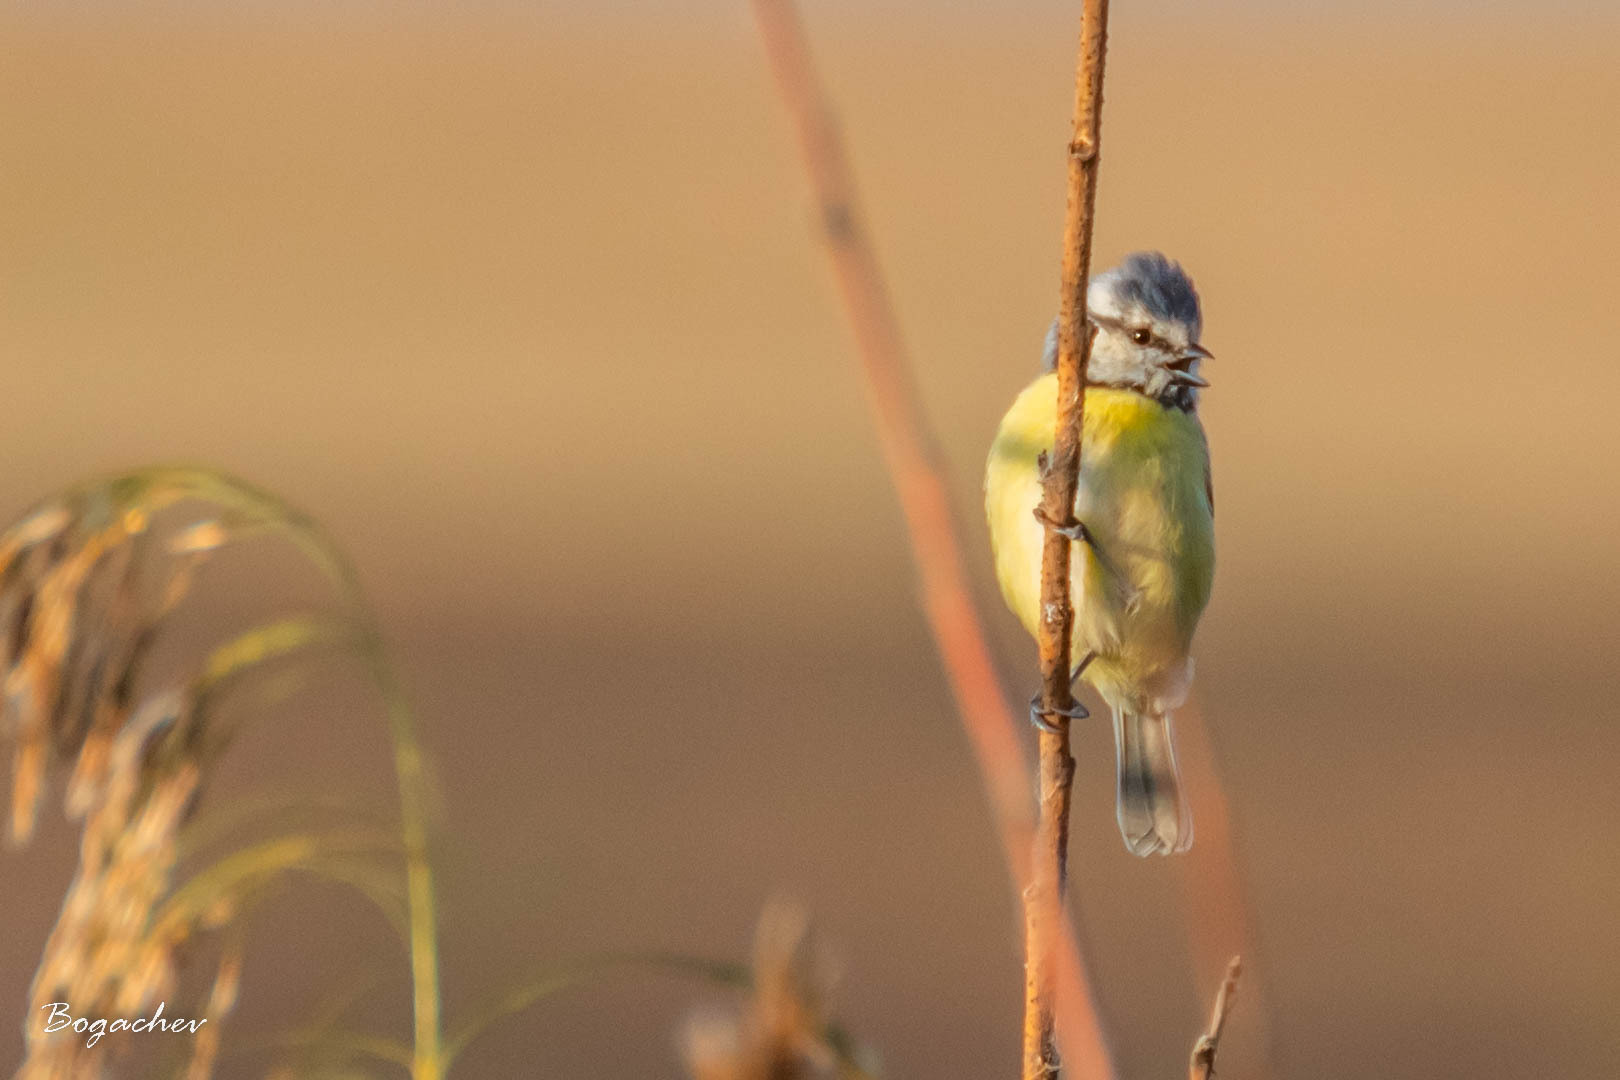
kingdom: Animalia
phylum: Chordata
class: Aves
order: Passeriformes
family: Paridae
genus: Cyanistes
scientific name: Cyanistes caeruleus
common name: Eurasian blue tit
